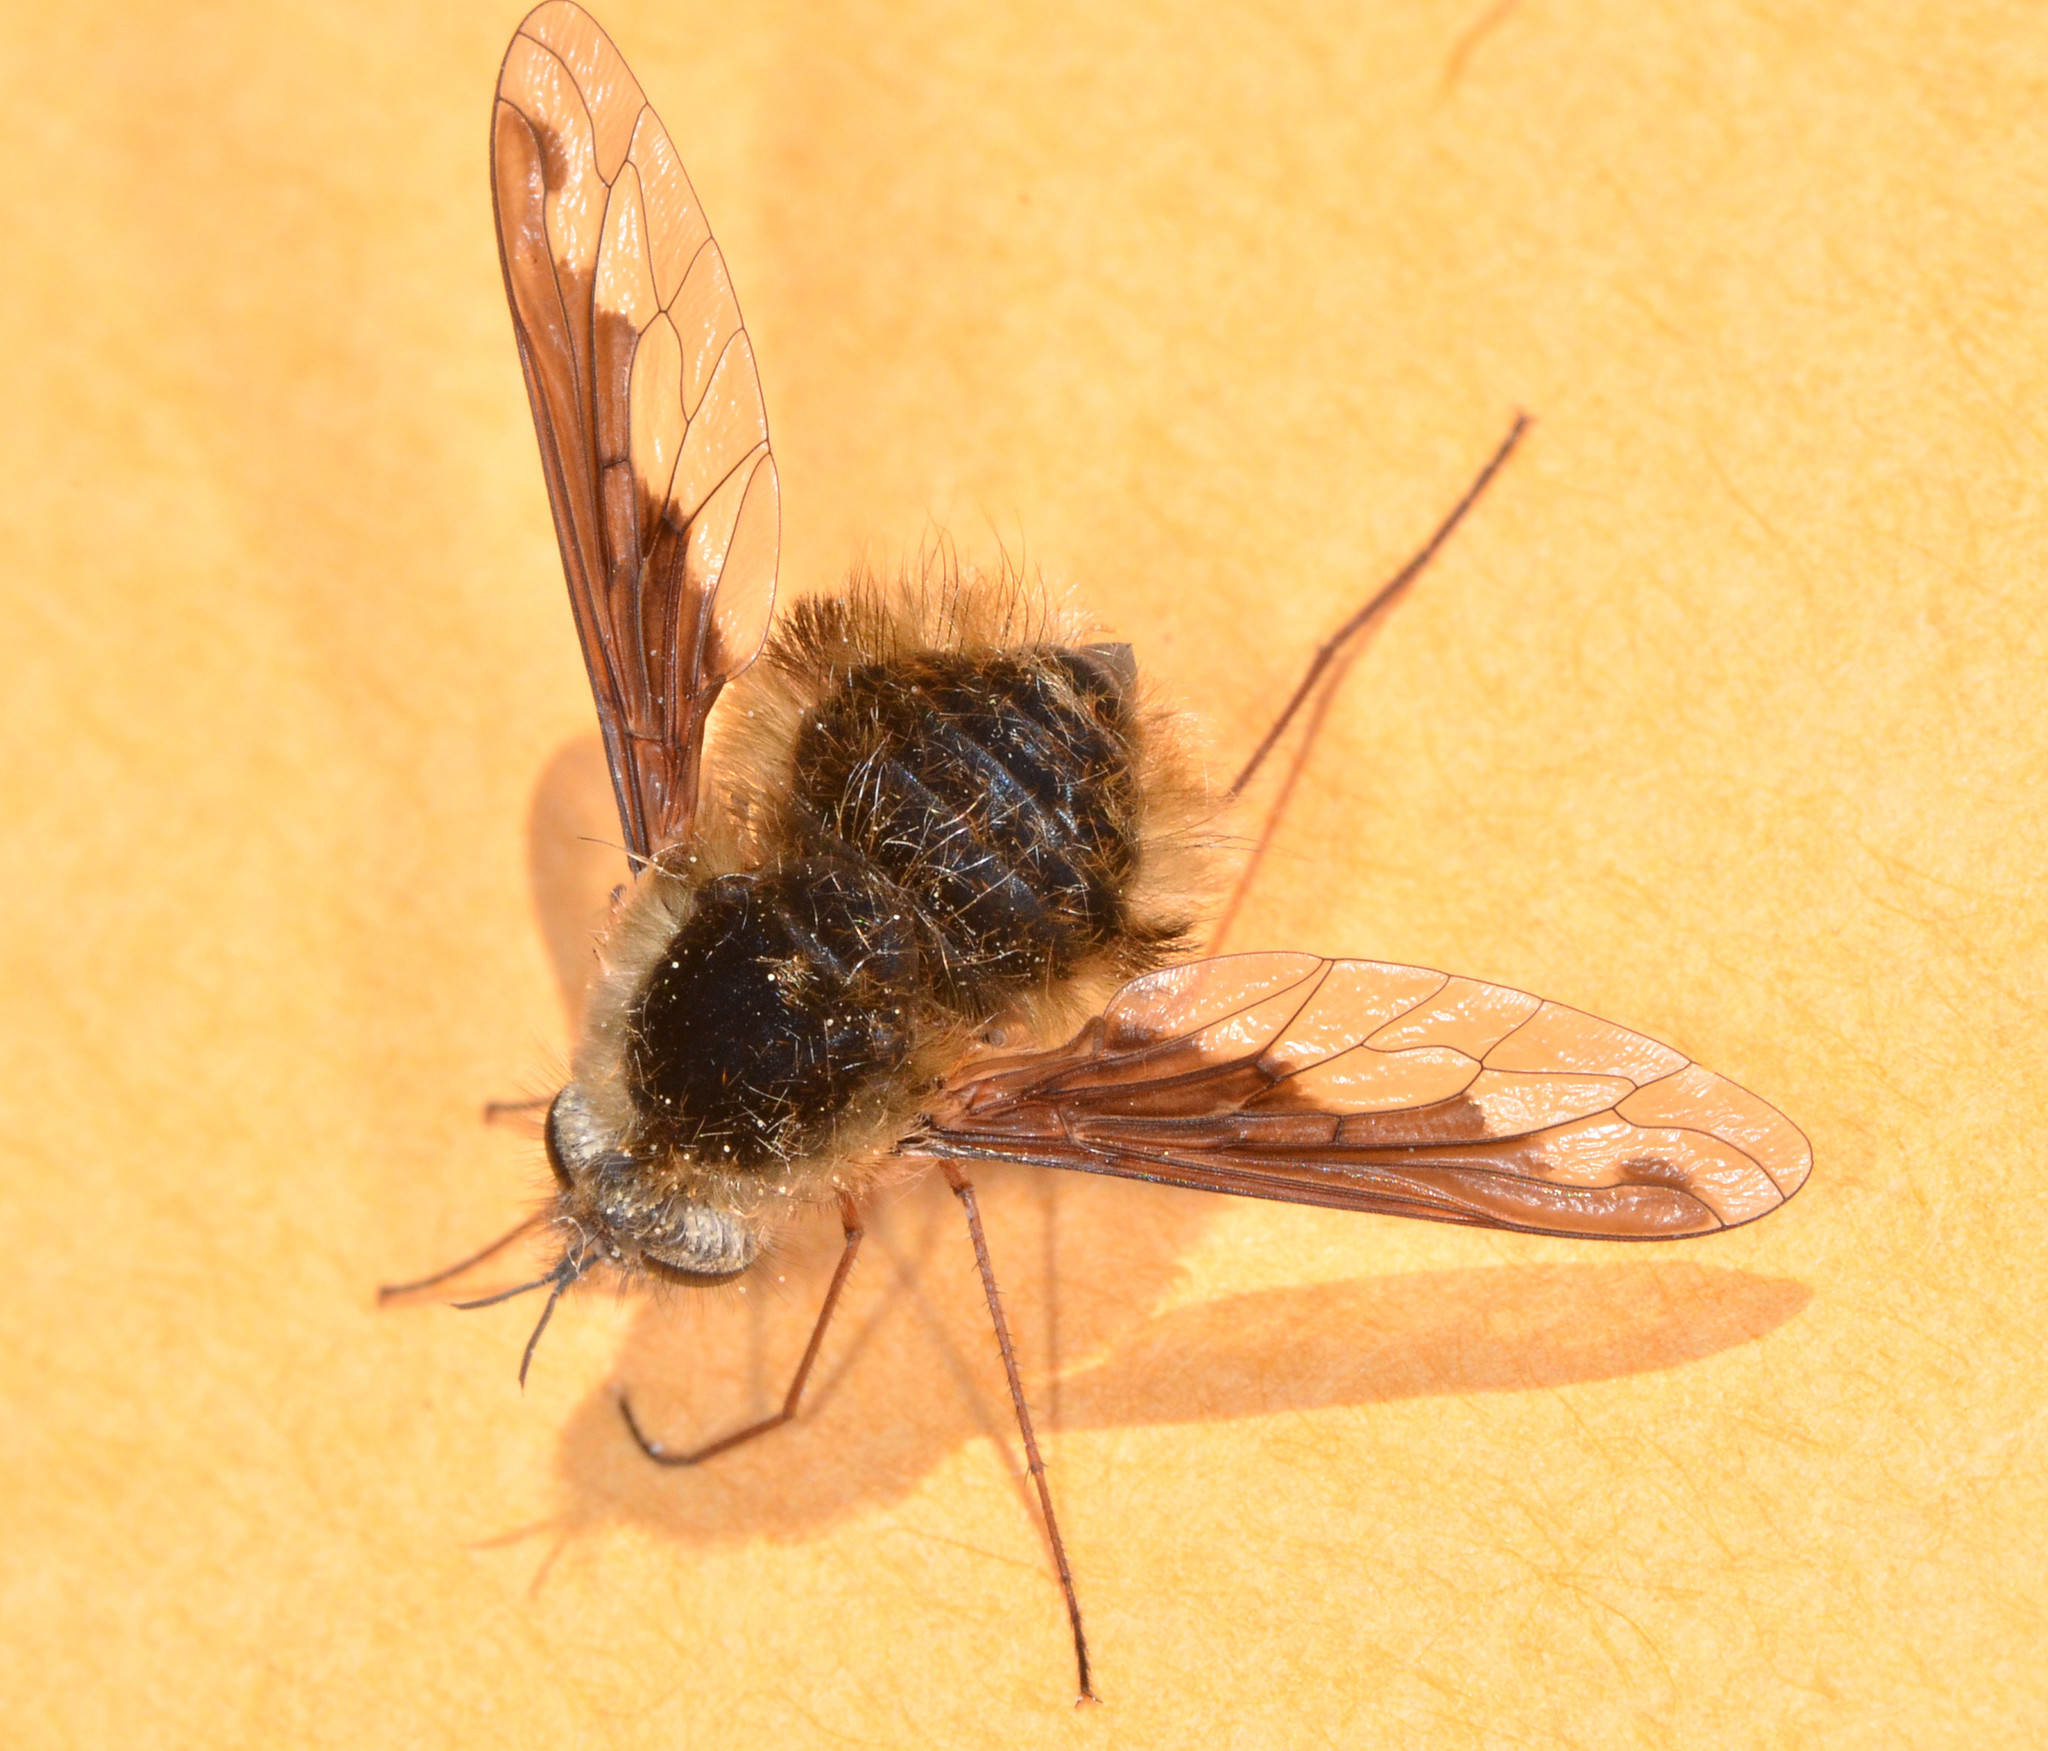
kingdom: Animalia
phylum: Arthropoda
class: Insecta
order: Diptera
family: Bombyliidae
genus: Bombylius
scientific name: Bombylius major
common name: Bee fly
